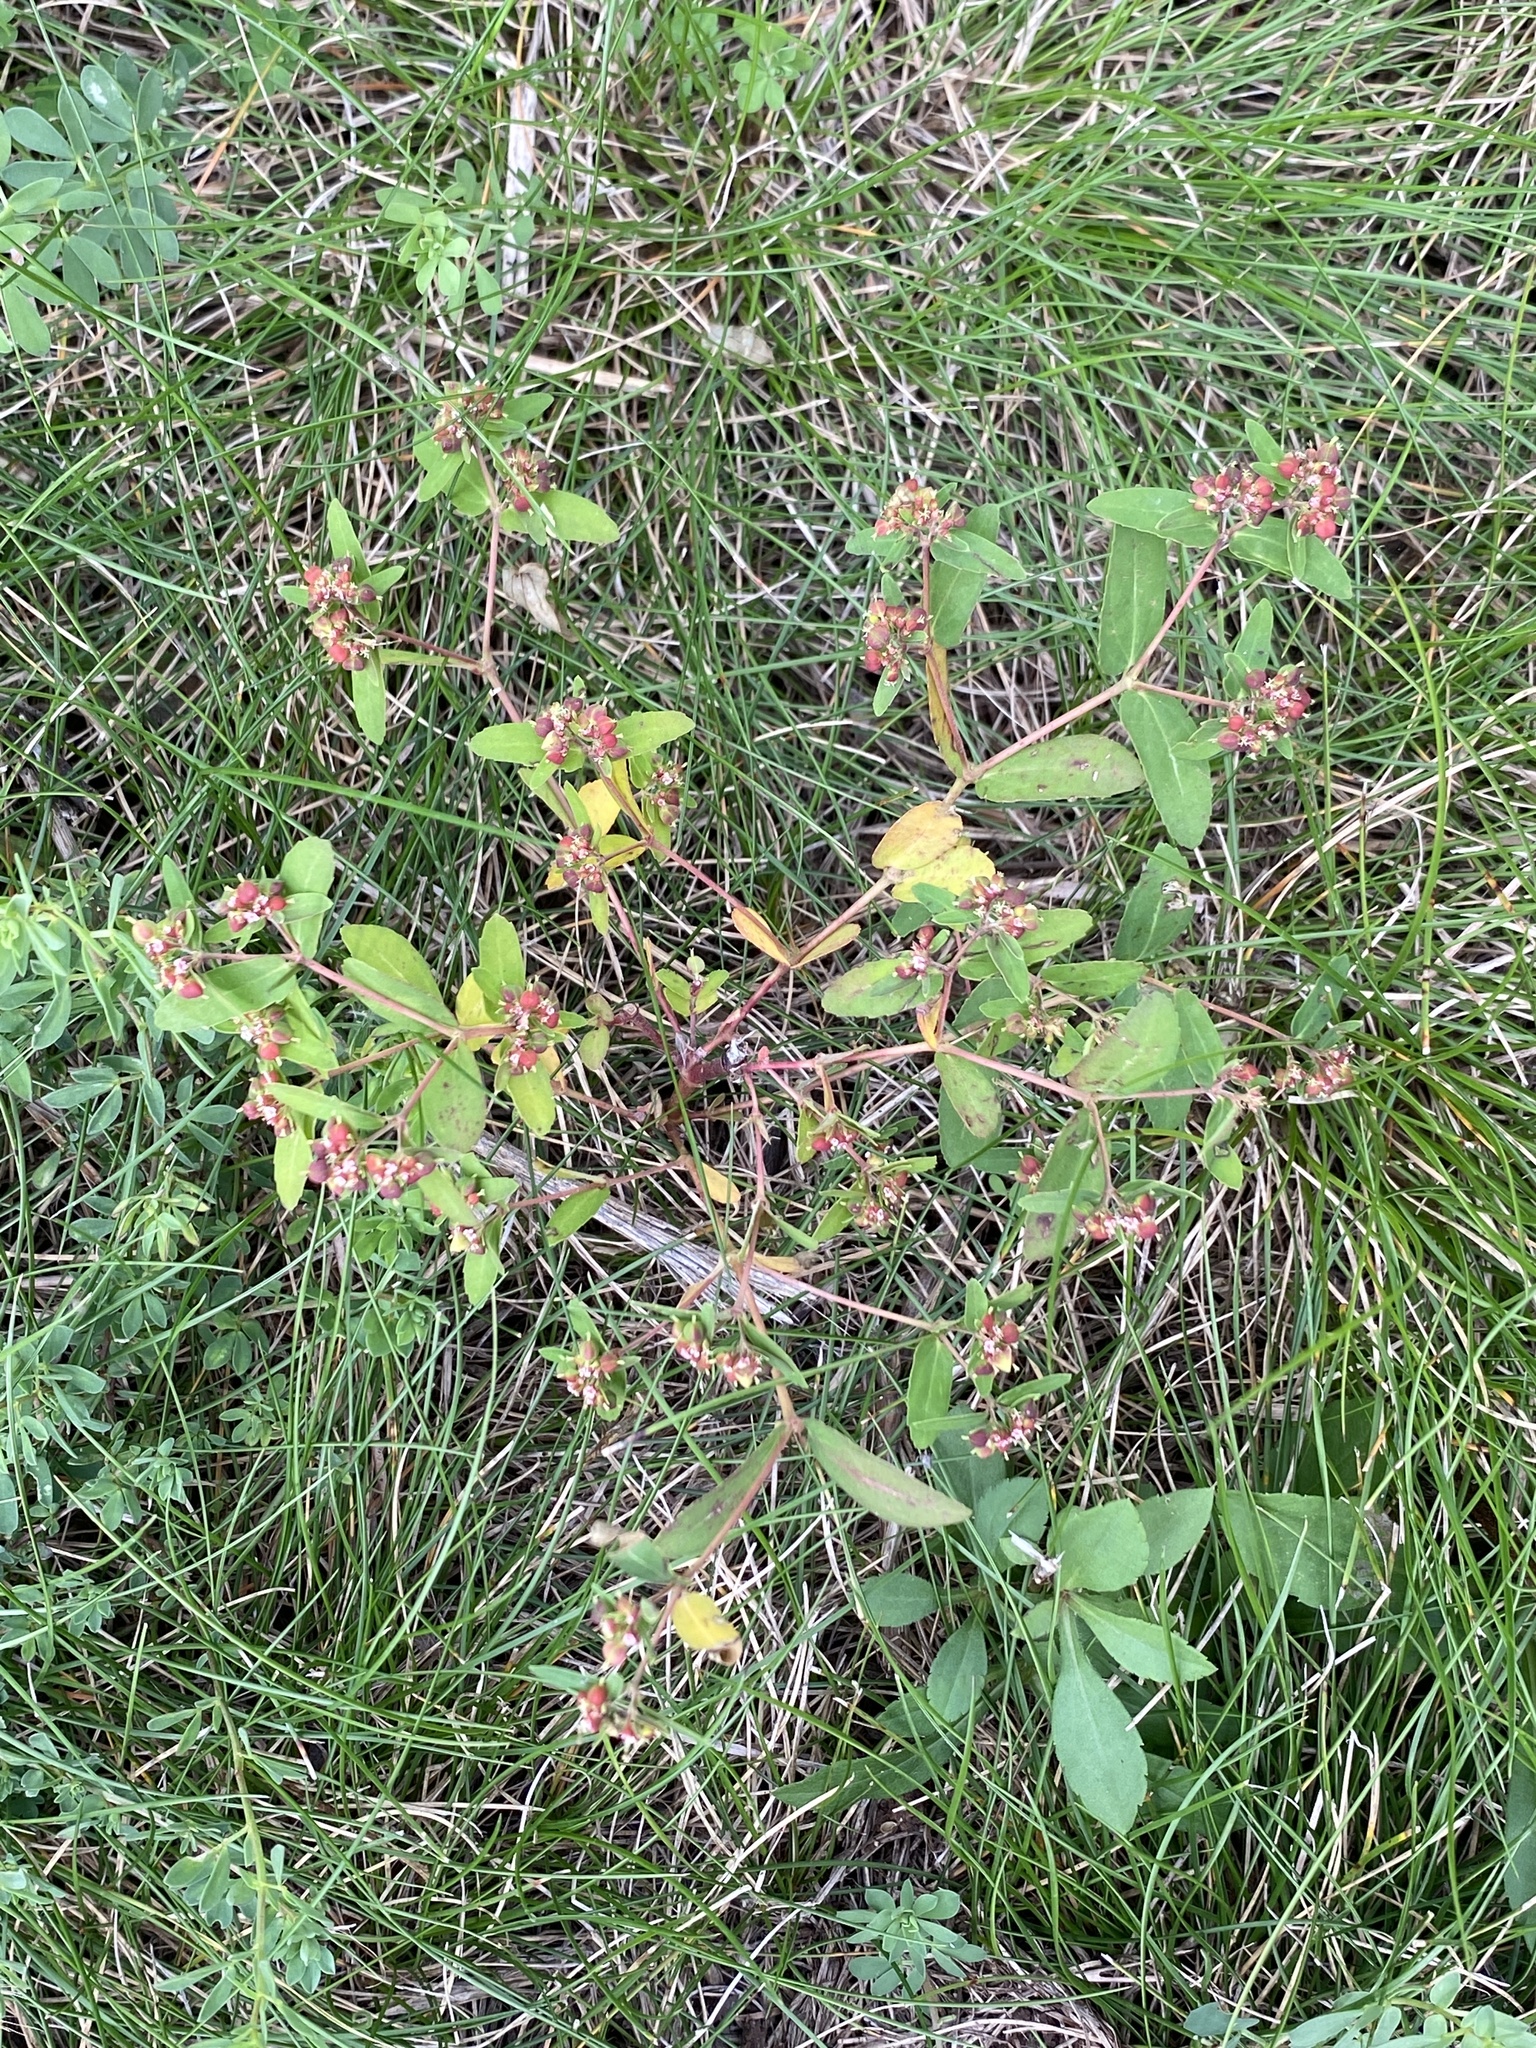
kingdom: Plantae
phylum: Tracheophyta
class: Magnoliopsida
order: Malpighiales
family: Euphorbiaceae
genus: Euphorbia
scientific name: Euphorbia nutans
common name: Eyebane
